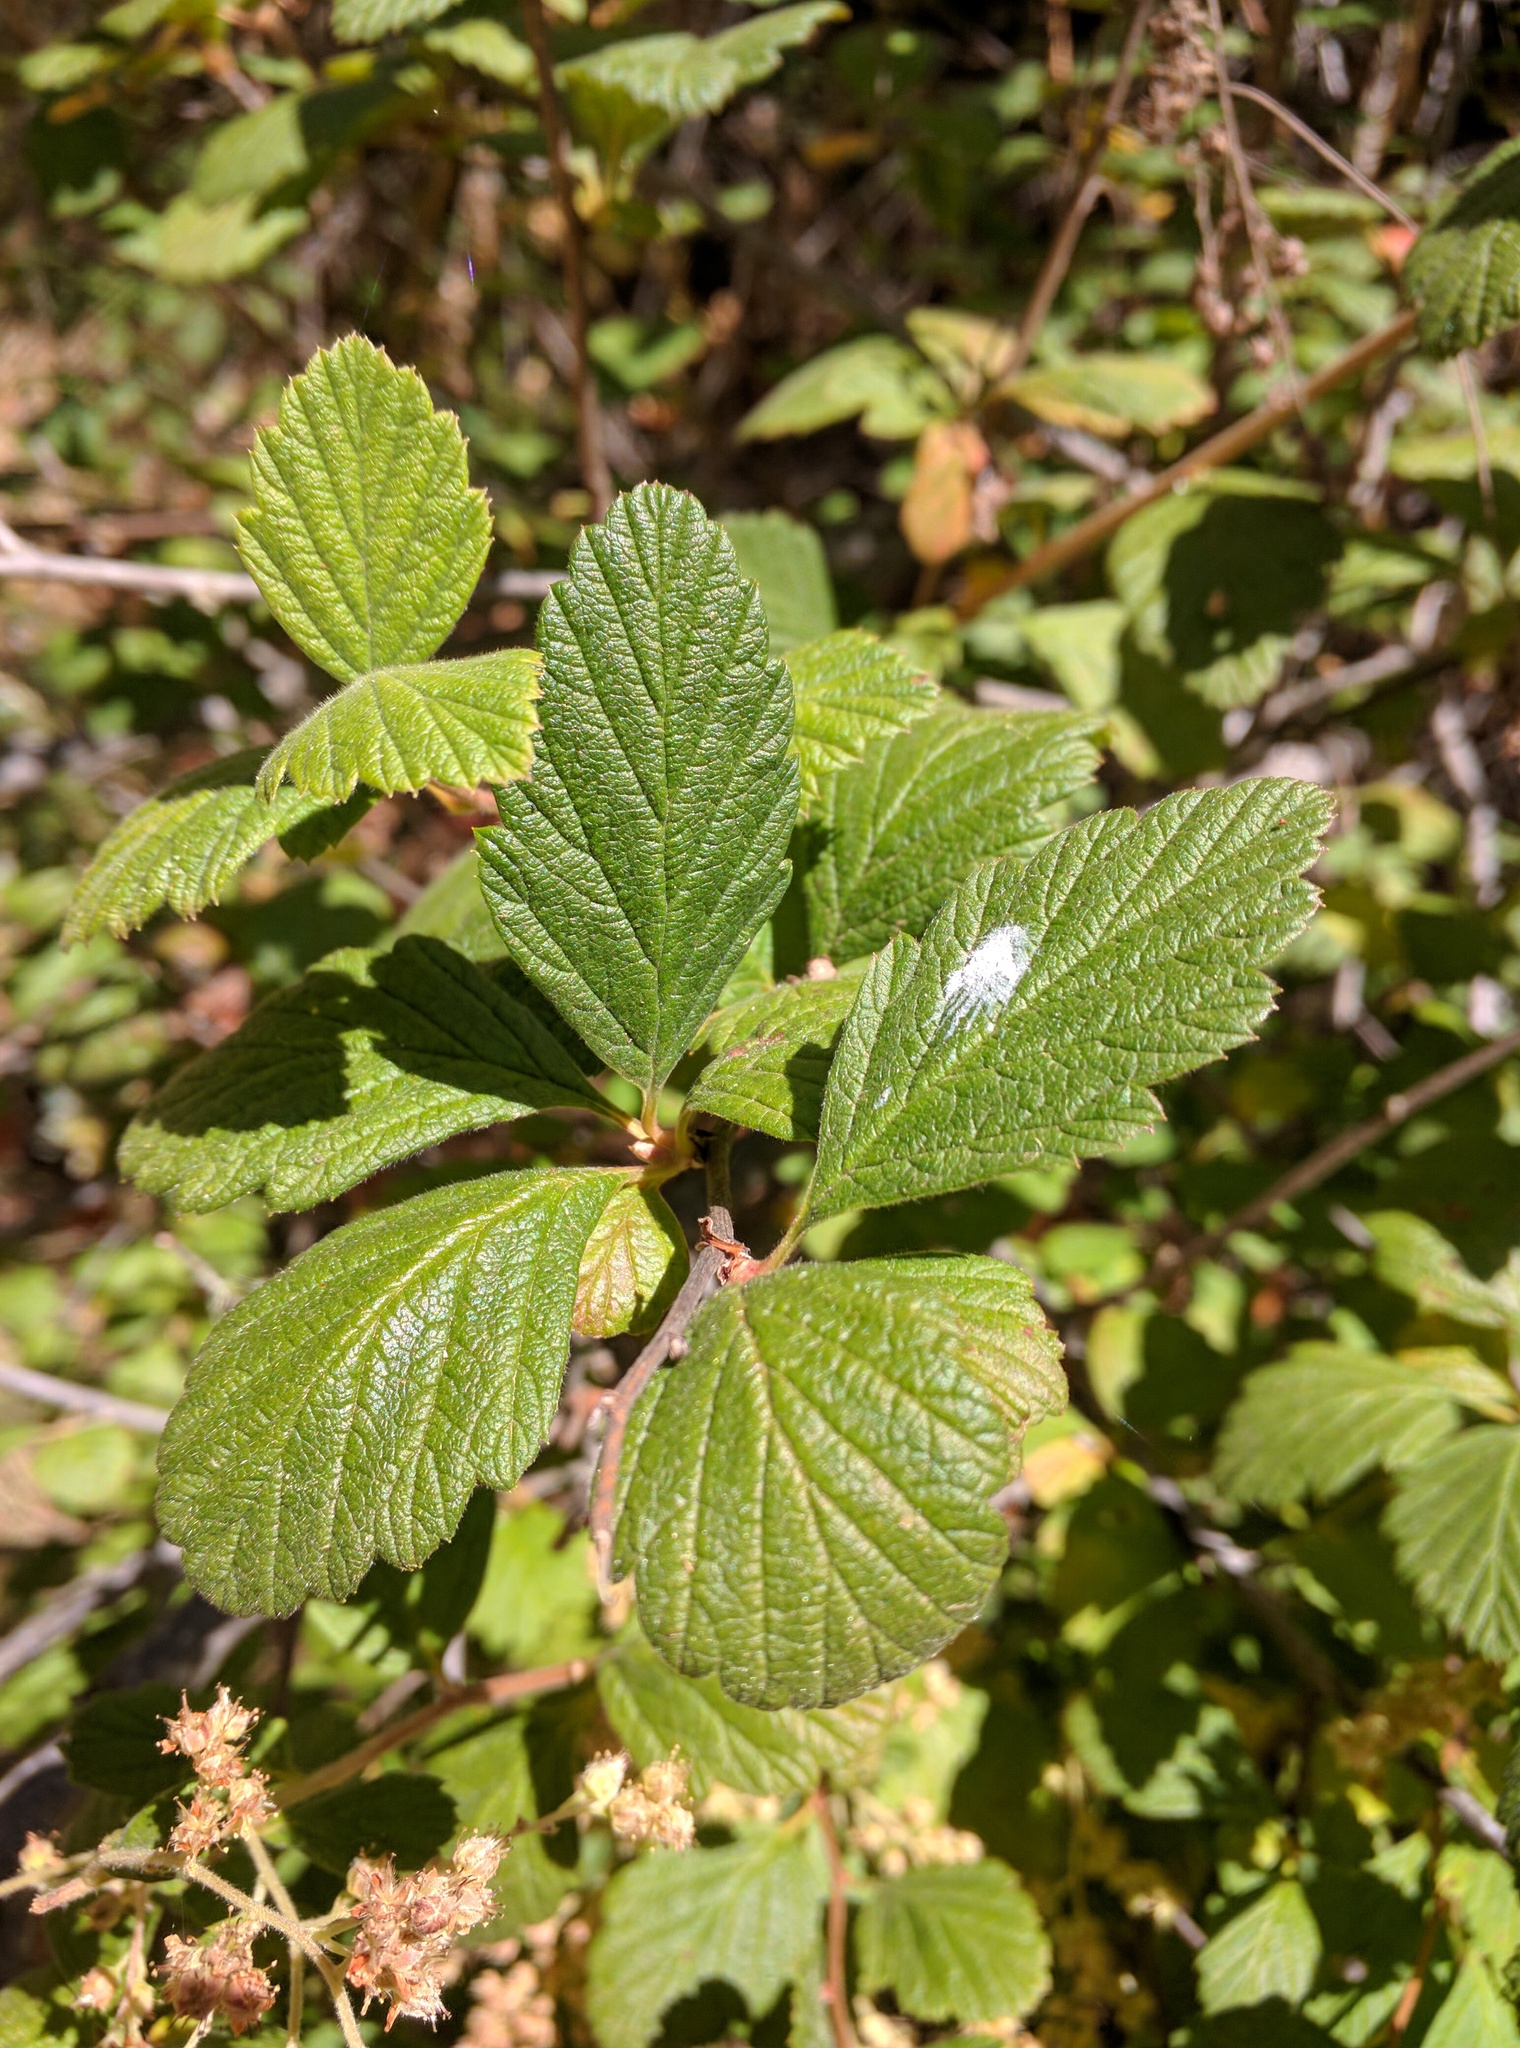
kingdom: Plantae
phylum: Tracheophyta
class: Magnoliopsida
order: Rosales
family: Rosaceae
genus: Holodiscus
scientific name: Holodiscus discolor
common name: Oceanspray
